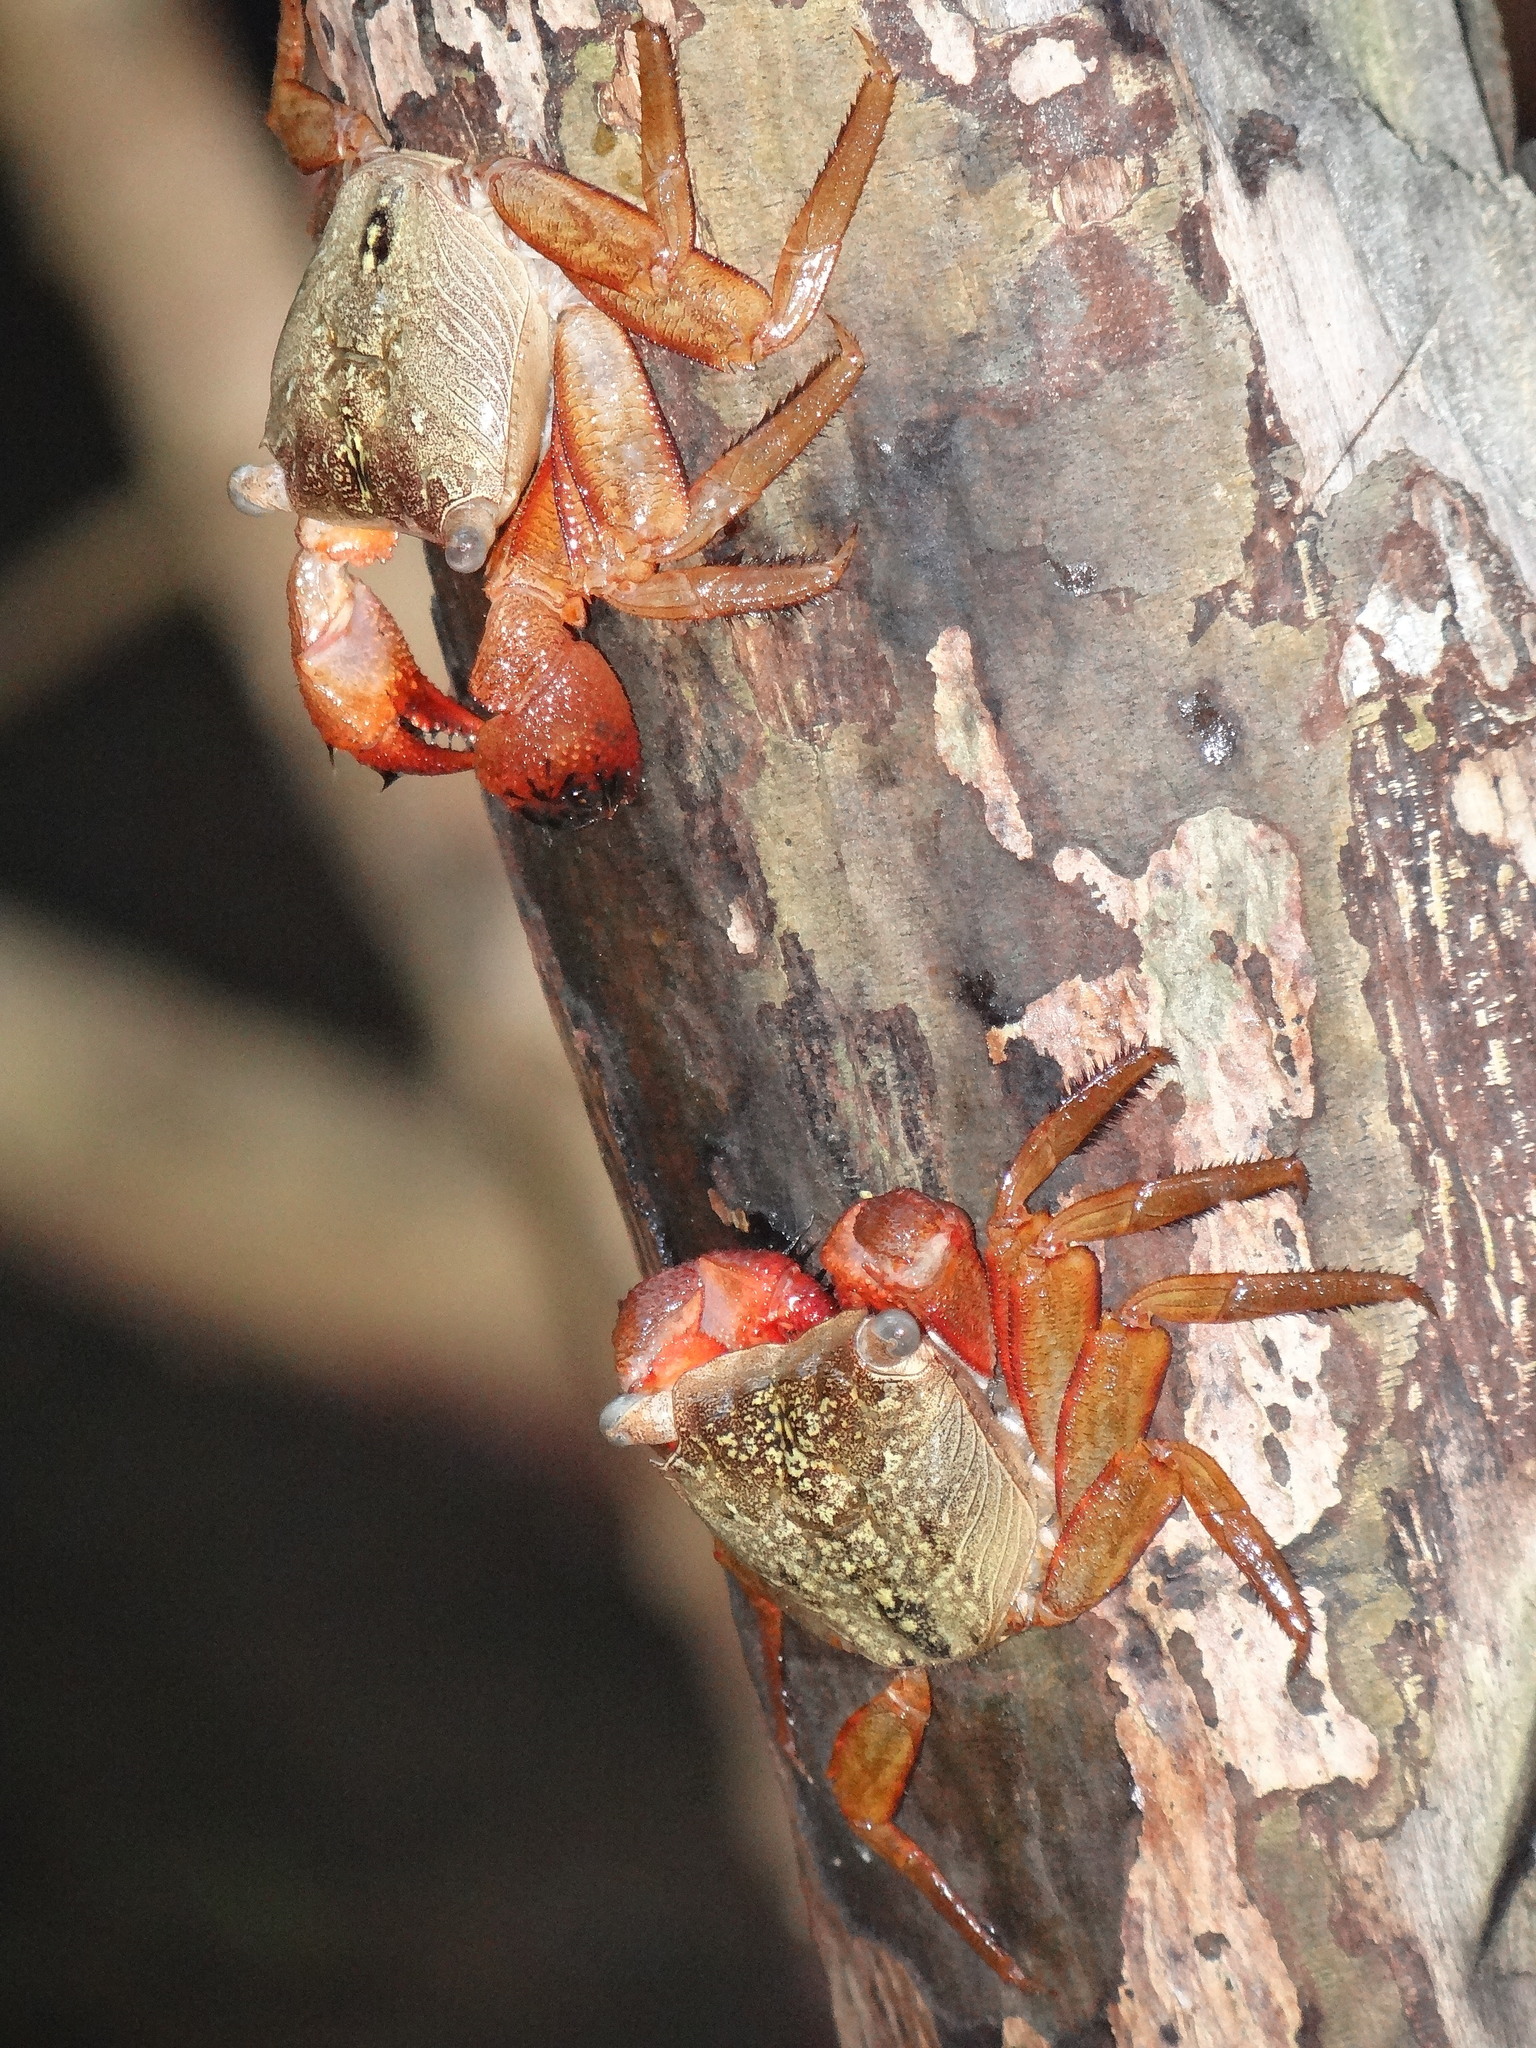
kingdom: Animalia
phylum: Arthropoda
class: Malacostraca
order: Decapoda
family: Sesarmidae
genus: Aratus
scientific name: Aratus pisonii
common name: Mangrove crab
